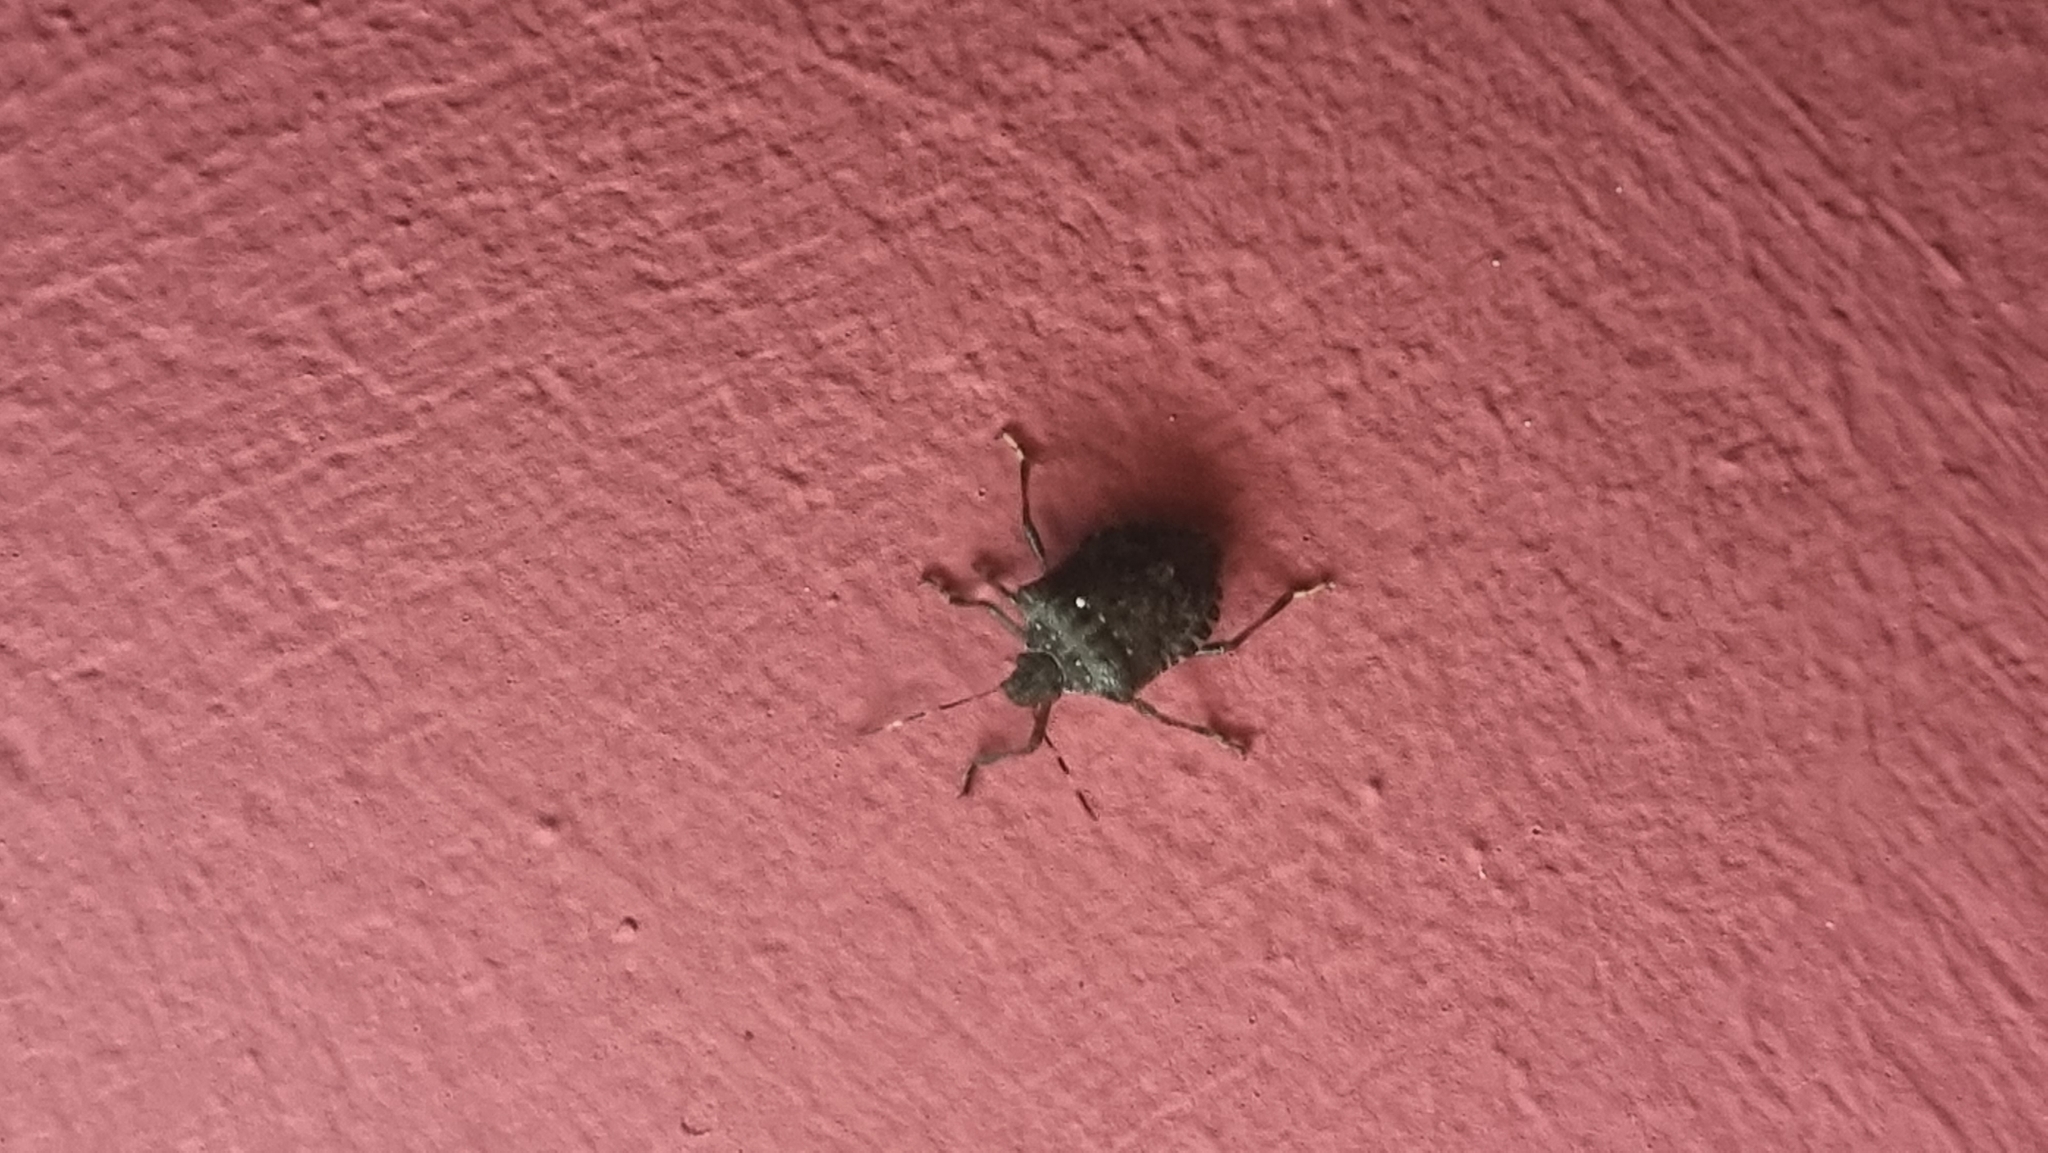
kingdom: Animalia
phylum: Arthropoda
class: Insecta
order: Hemiptera
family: Pentatomidae
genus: Halyomorpha
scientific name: Halyomorpha halys
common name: Brown marmorated stink bug
